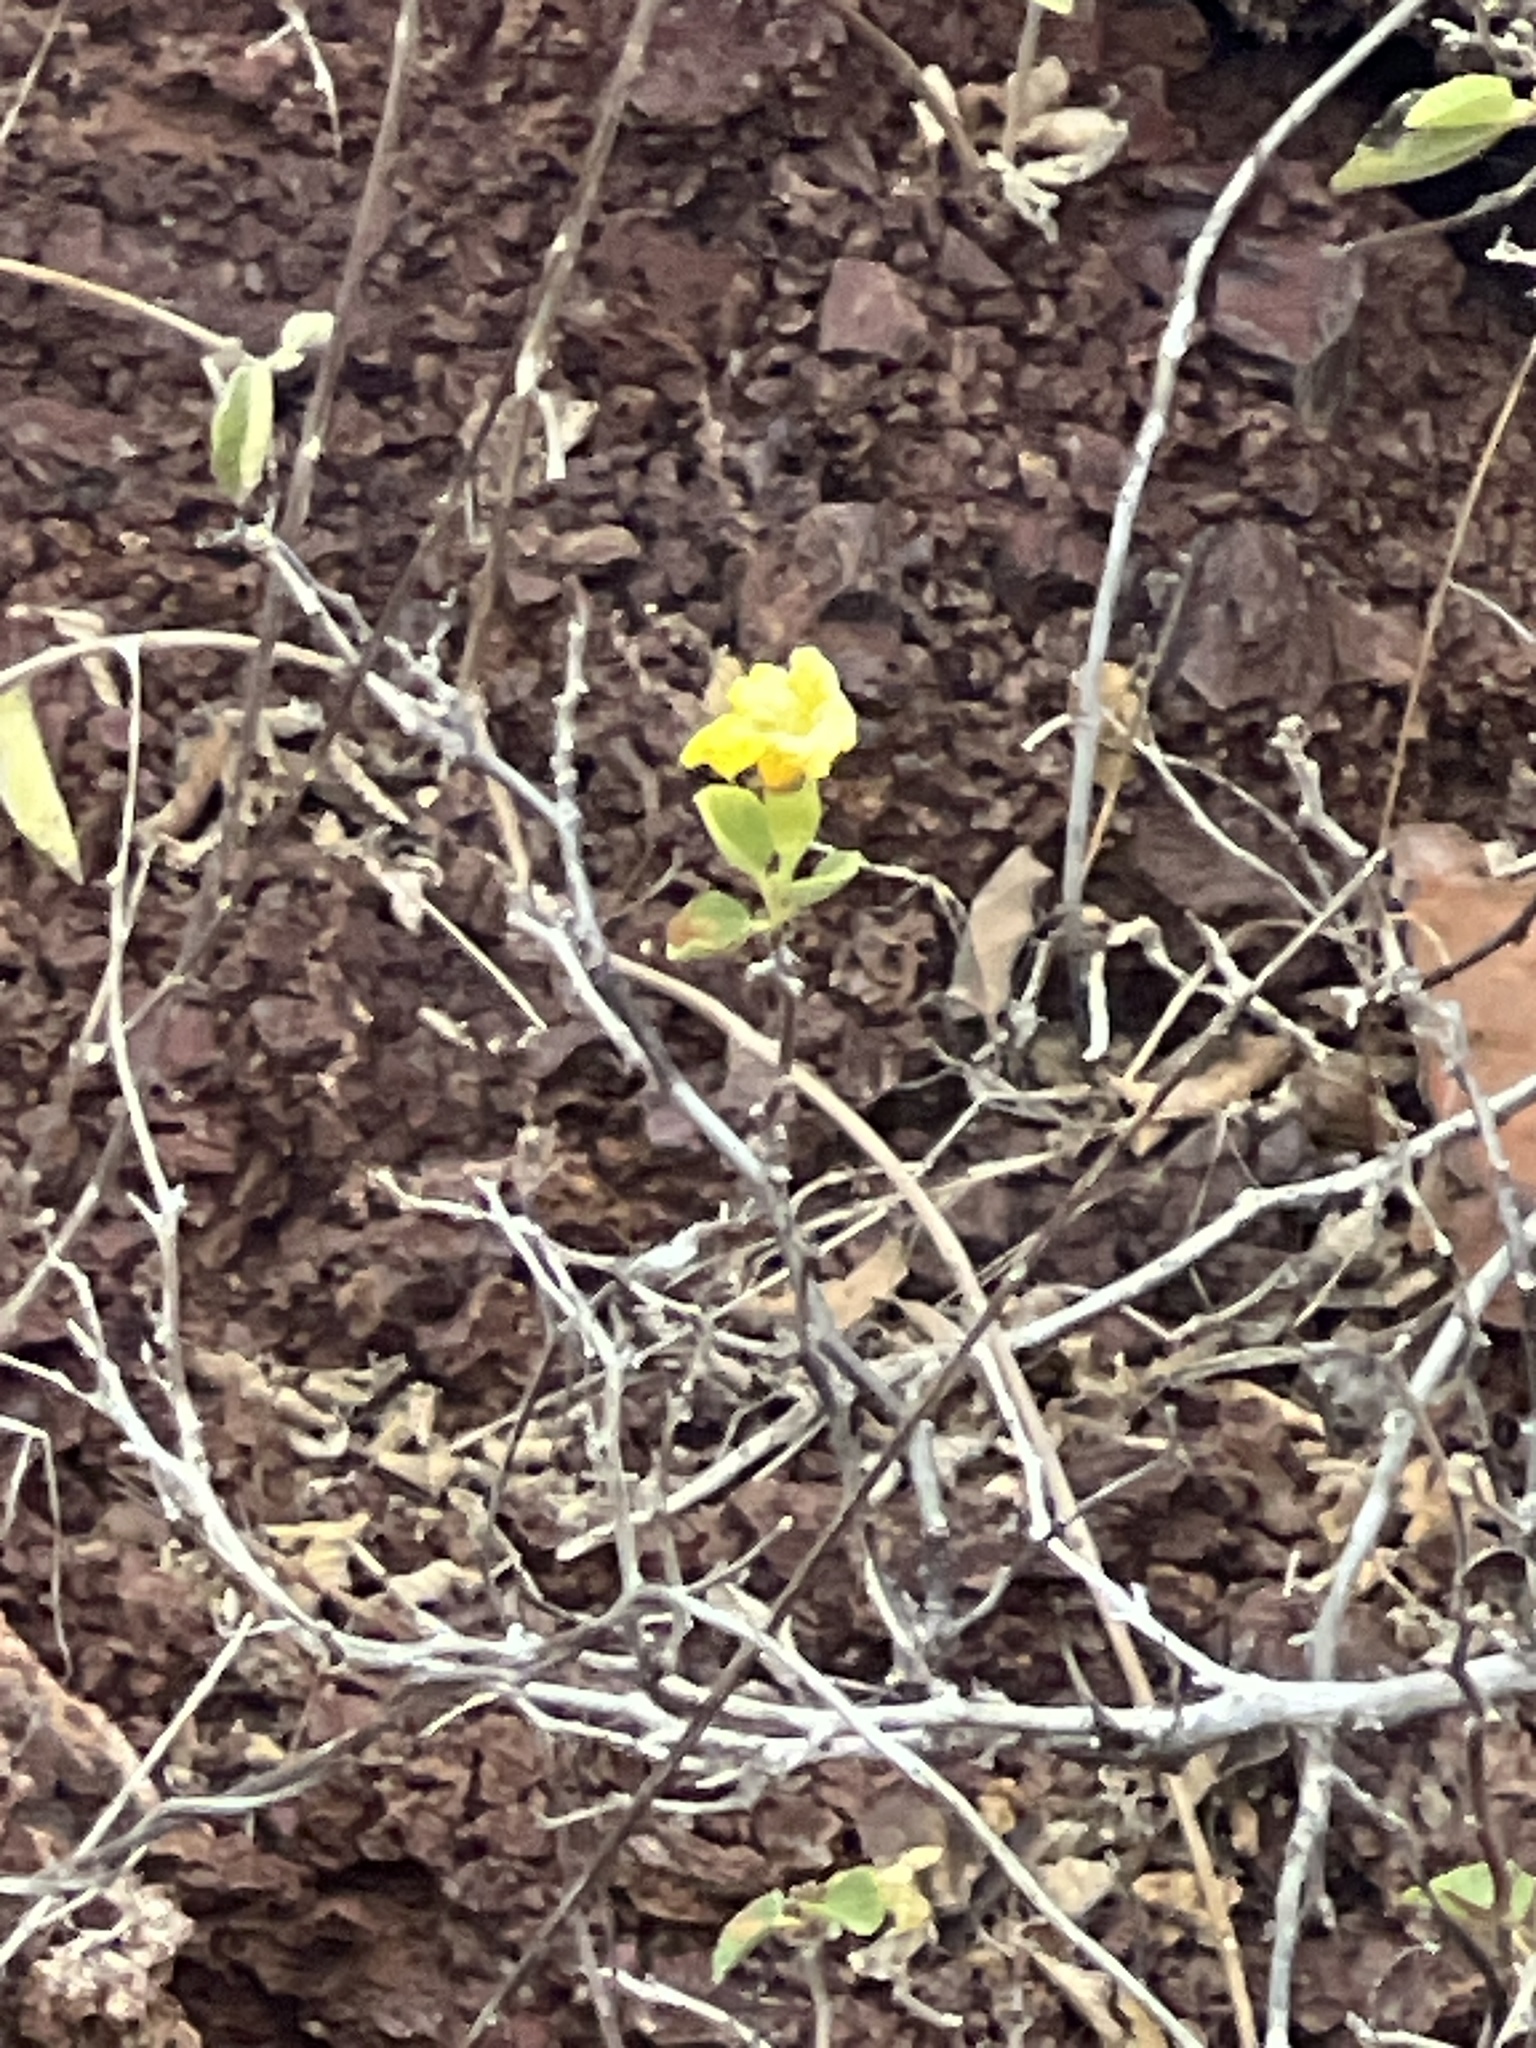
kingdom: Plantae
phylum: Tracheophyta
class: Magnoliopsida
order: Boraginales
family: Cordiaceae
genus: Cordia
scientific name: Cordia lutea
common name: Yellow geiger
